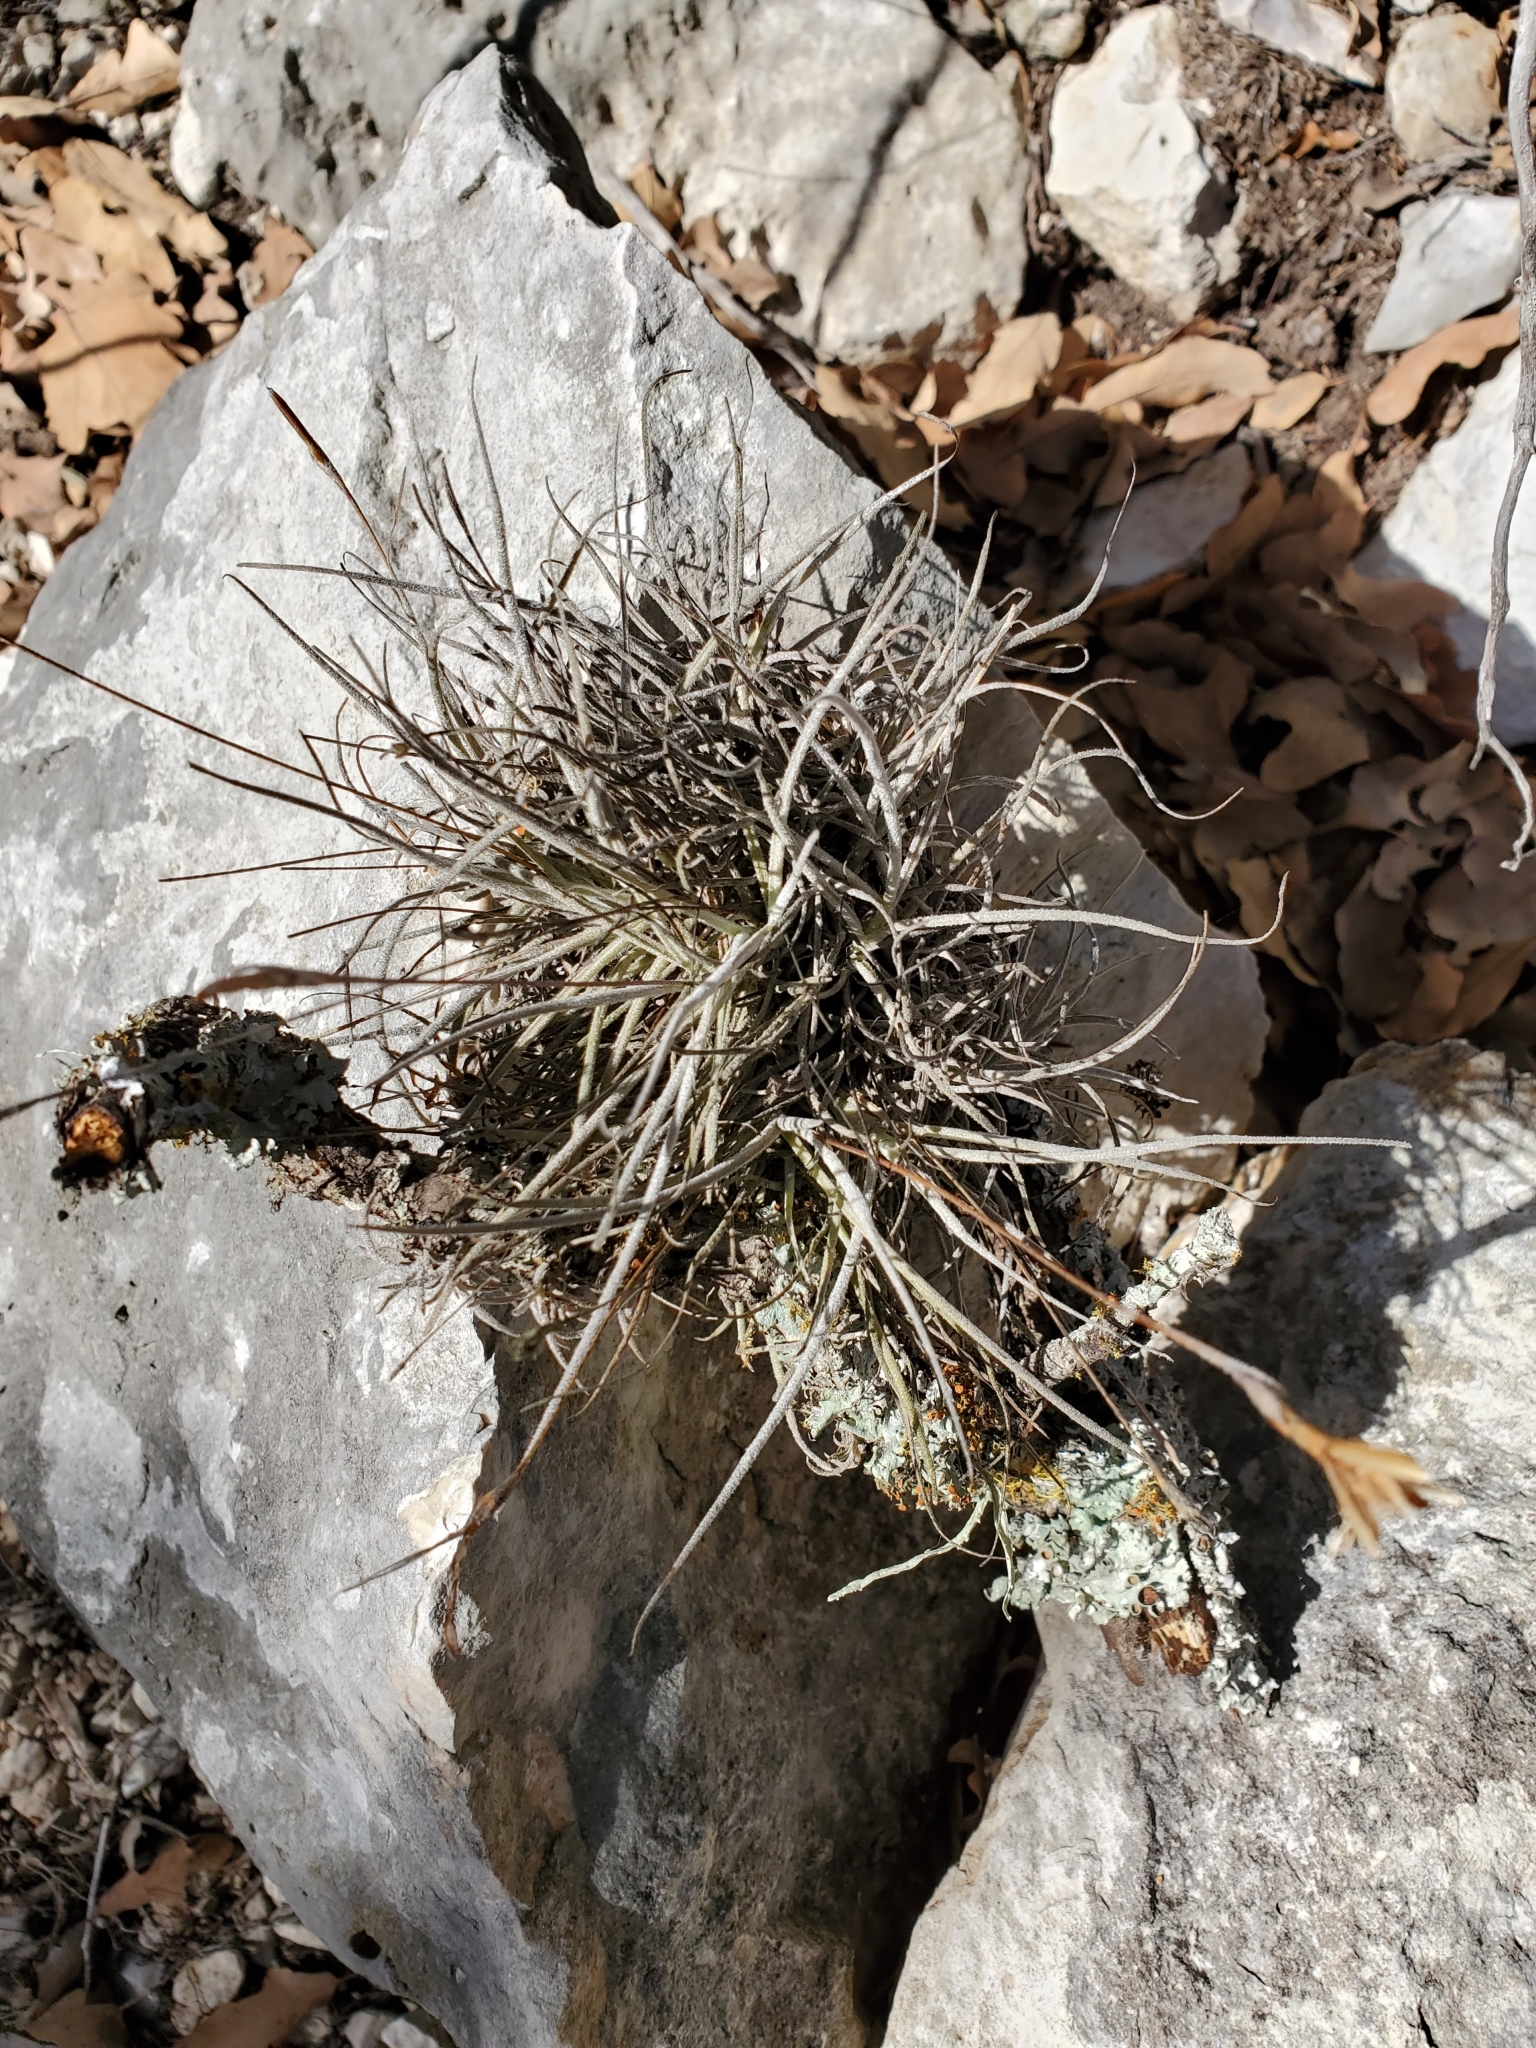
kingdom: Plantae
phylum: Tracheophyta
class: Liliopsida
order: Poales
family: Bromeliaceae
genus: Tillandsia
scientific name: Tillandsia recurvata
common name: Small ballmoss
